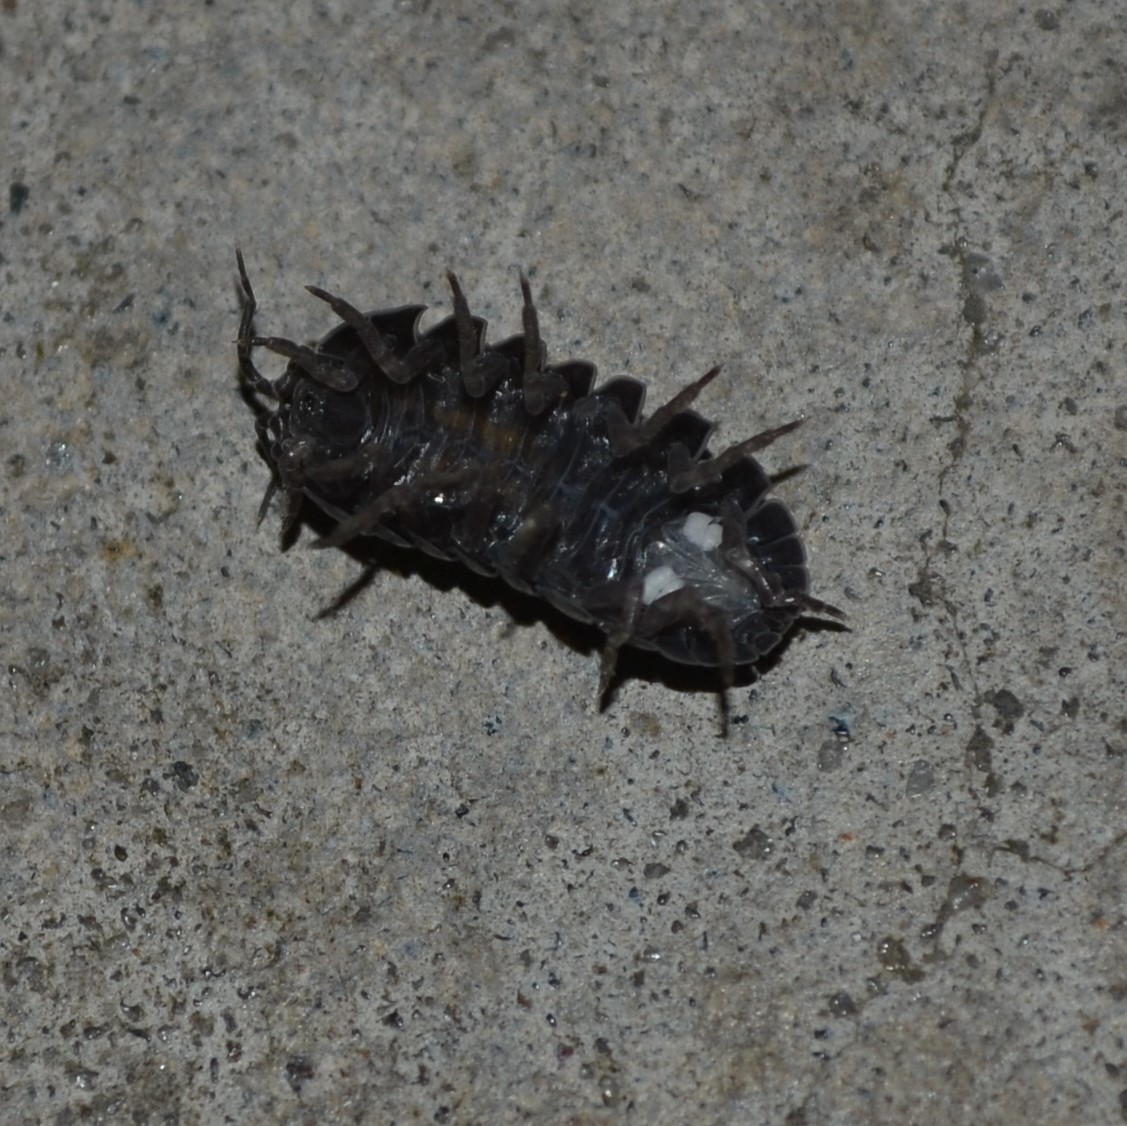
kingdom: Animalia
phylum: Arthropoda
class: Malacostraca
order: Isopoda
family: Armadillidiidae
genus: Armadillidium
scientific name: Armadillidium vulgare
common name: Common pill woodlouse
